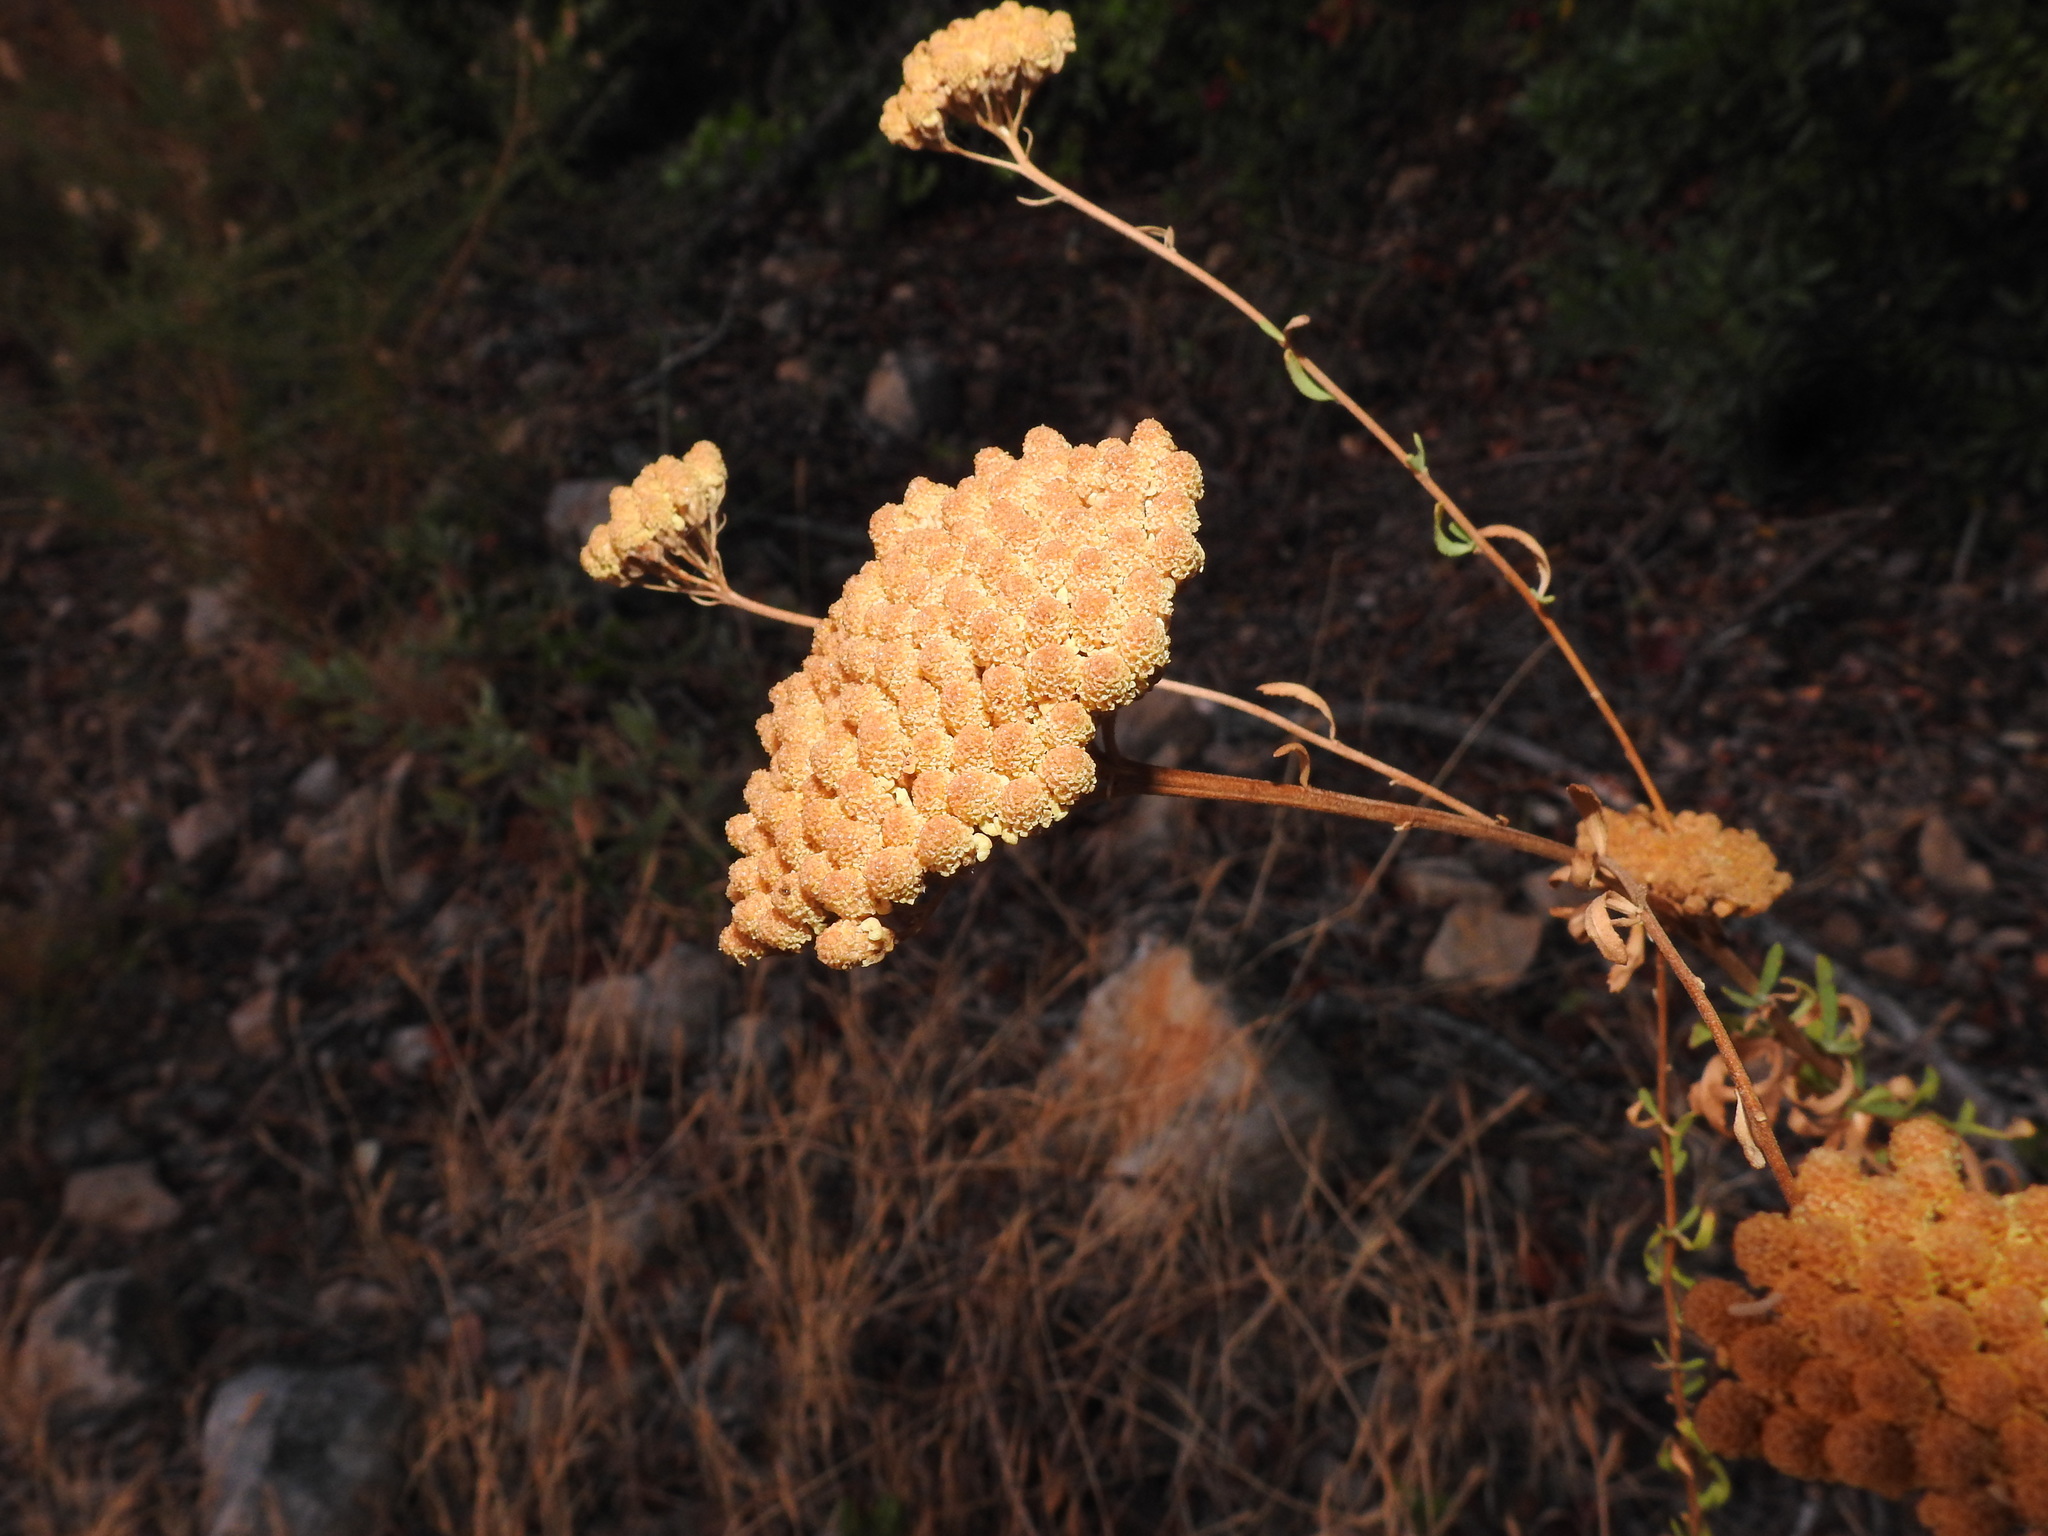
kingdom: Plantae
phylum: Tracheophyta
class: Magnoliopsida
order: Asterales
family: Asteraceae
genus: Achillea
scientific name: Achillea ageratum
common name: Sweet-nancy
